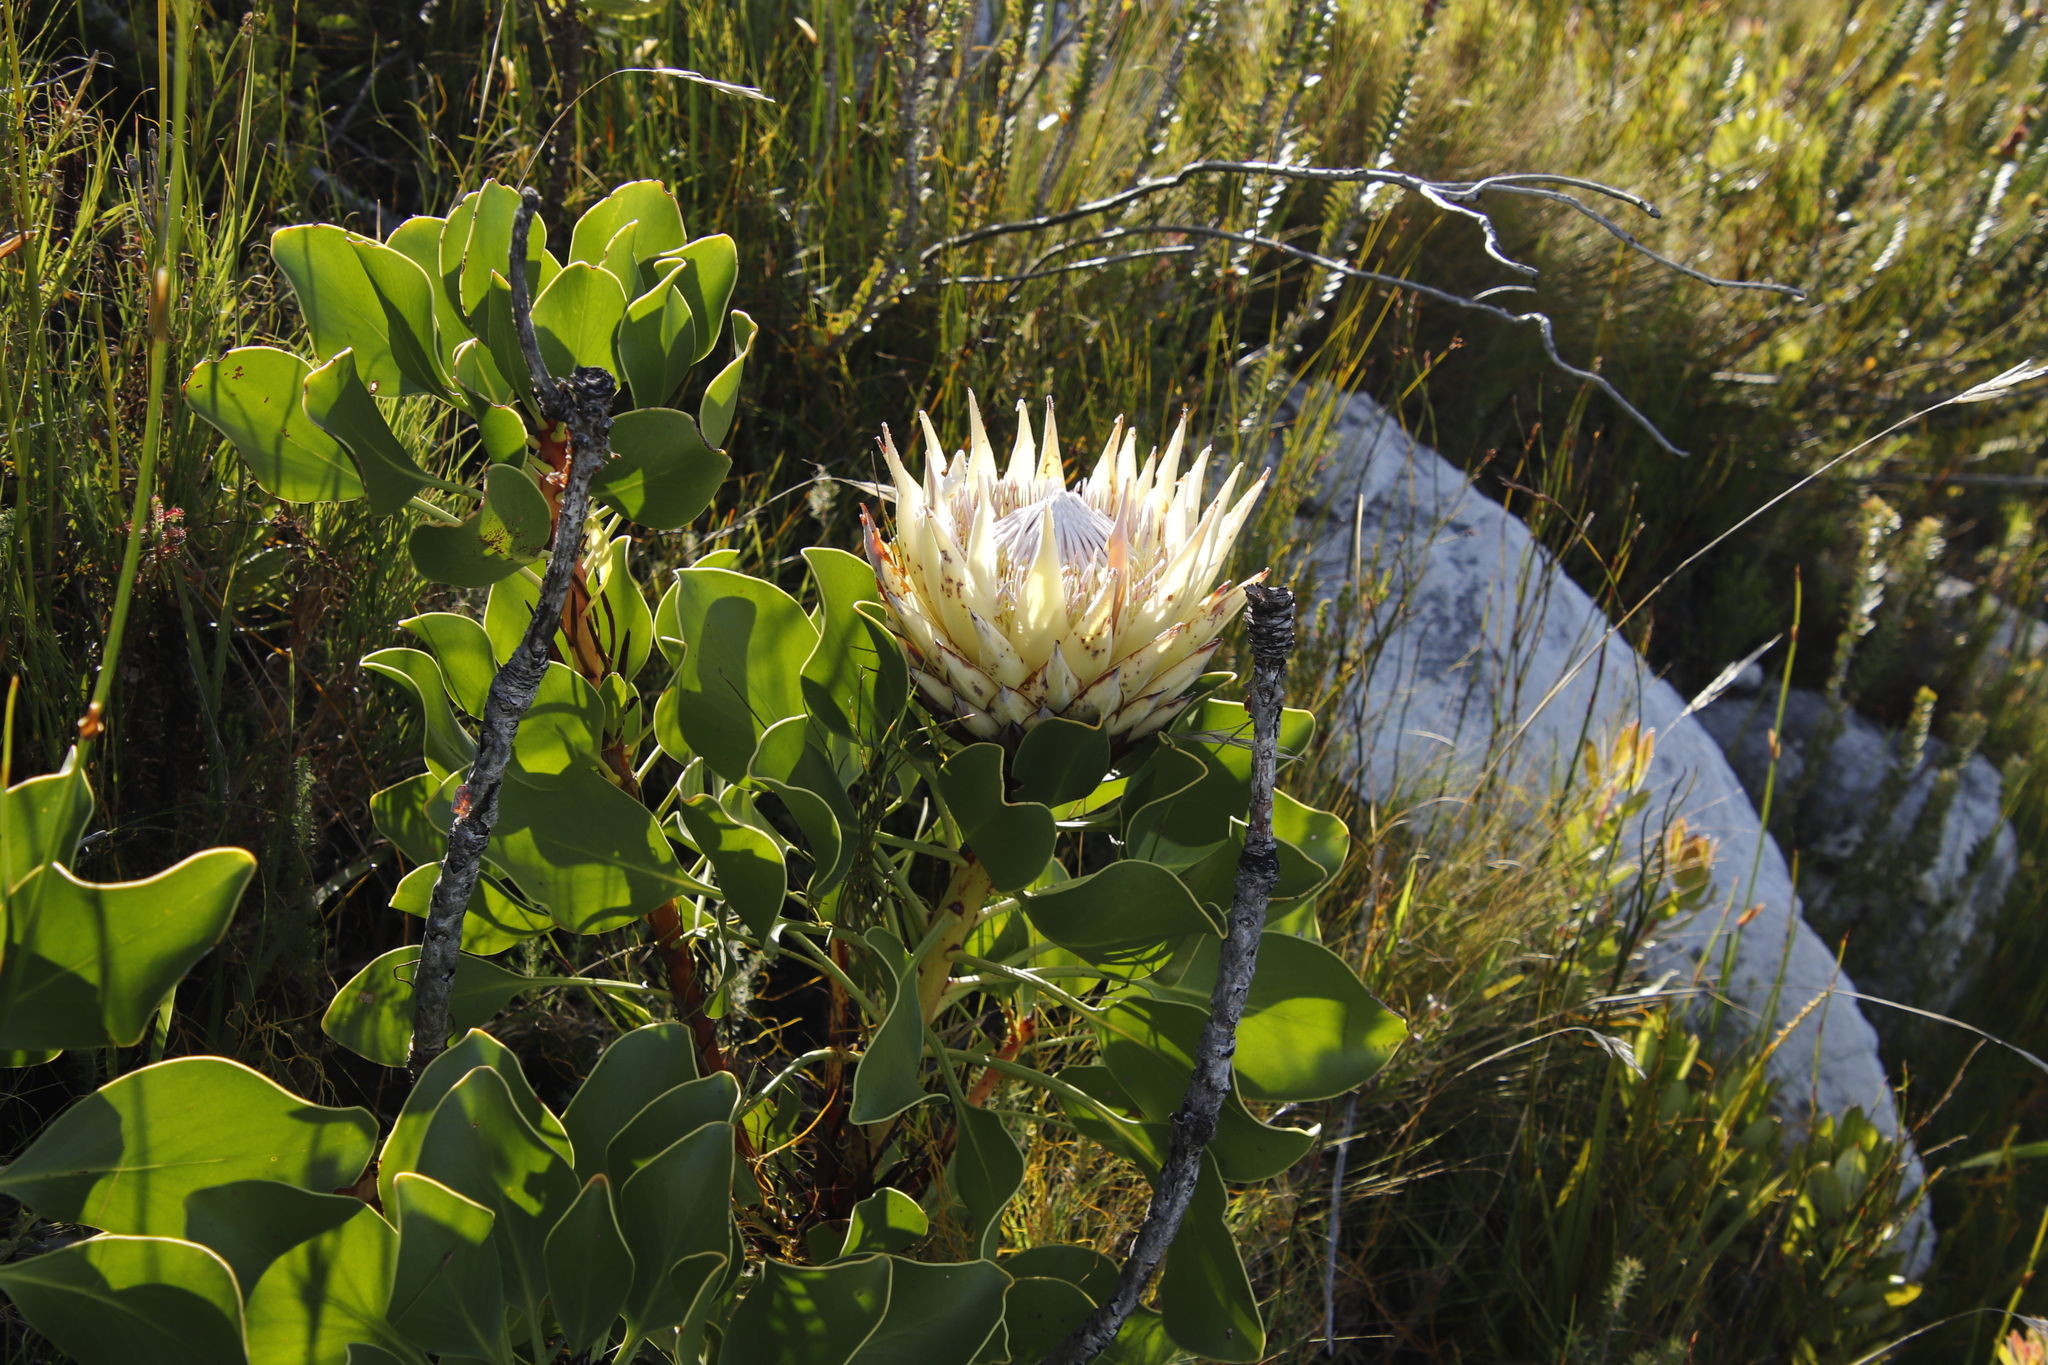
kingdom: Plantae
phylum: Tracheophyta
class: Magnoliopsida
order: Proteales
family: Proteaceae
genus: Protea
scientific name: Protea cynaroides
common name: King protea
